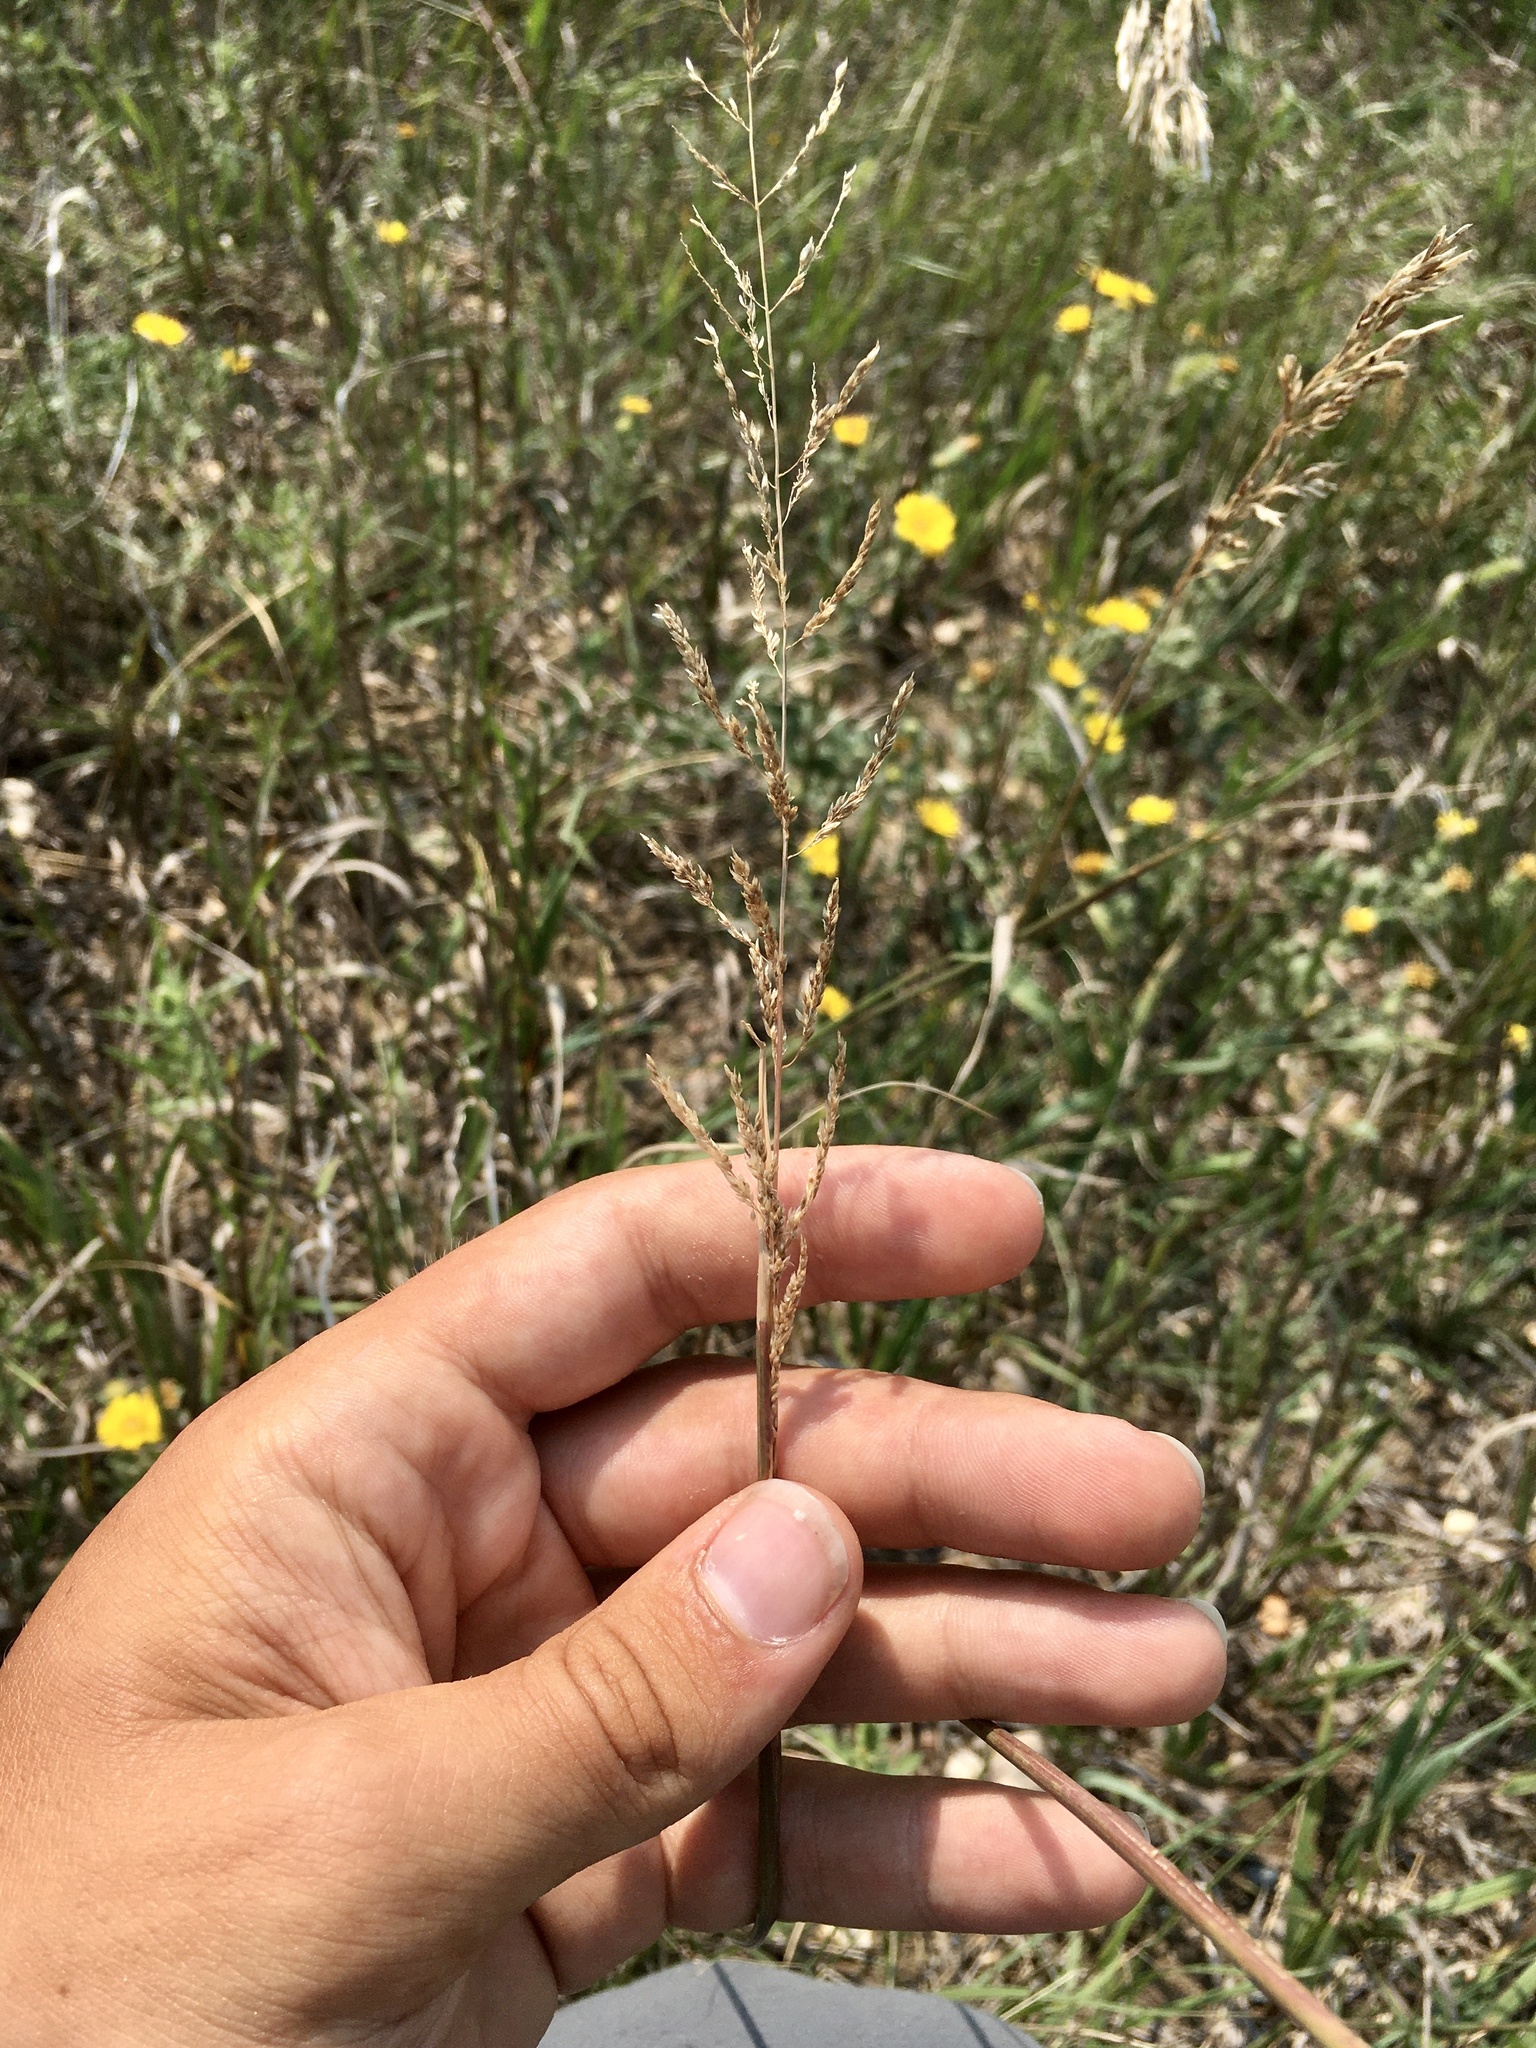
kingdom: Plantae
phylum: Tracheophyta
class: Liliopsida
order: Poales
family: Poaceae
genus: Sporobolus
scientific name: Sporobolus cryptandrus
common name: Sand dropseed
